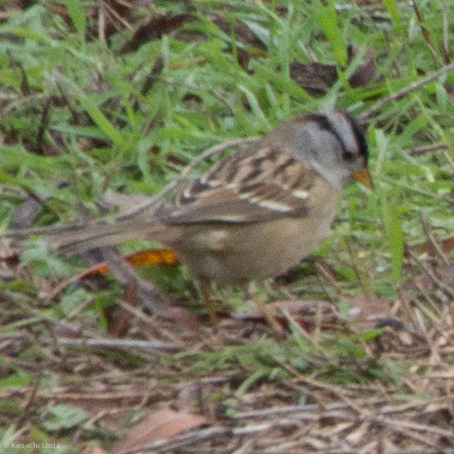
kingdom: Animalia
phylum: Chordata
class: Aves
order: Passeriformes
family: Passerellidae
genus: Zonotrichia
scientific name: Zonotrichia leucophrys
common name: White-crowned sparrow
